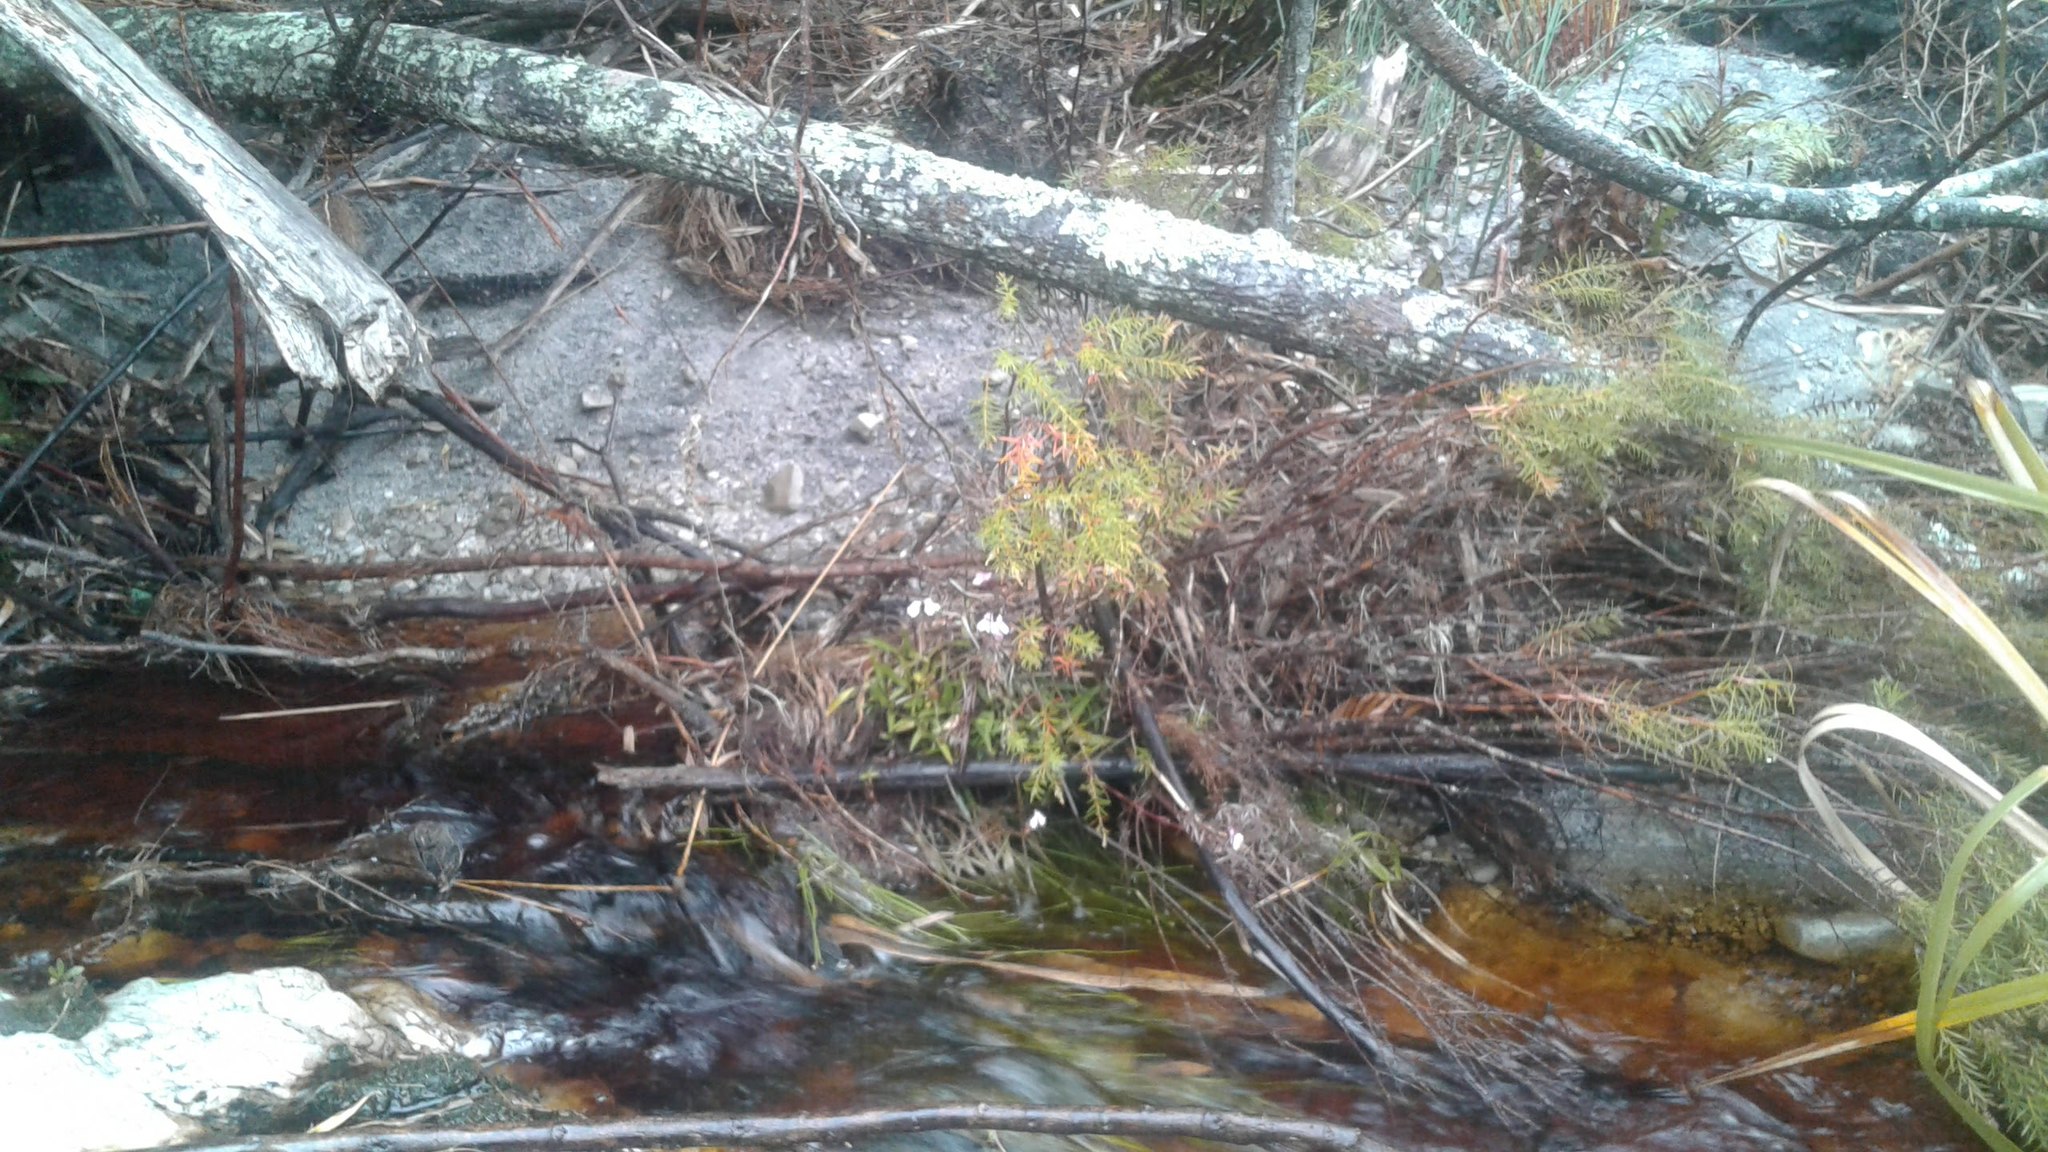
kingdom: Plantae
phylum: Tracheophyta
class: Magnoliopsida
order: Bruniales
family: Bruniaceae
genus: Brunia
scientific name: Brunia africana
